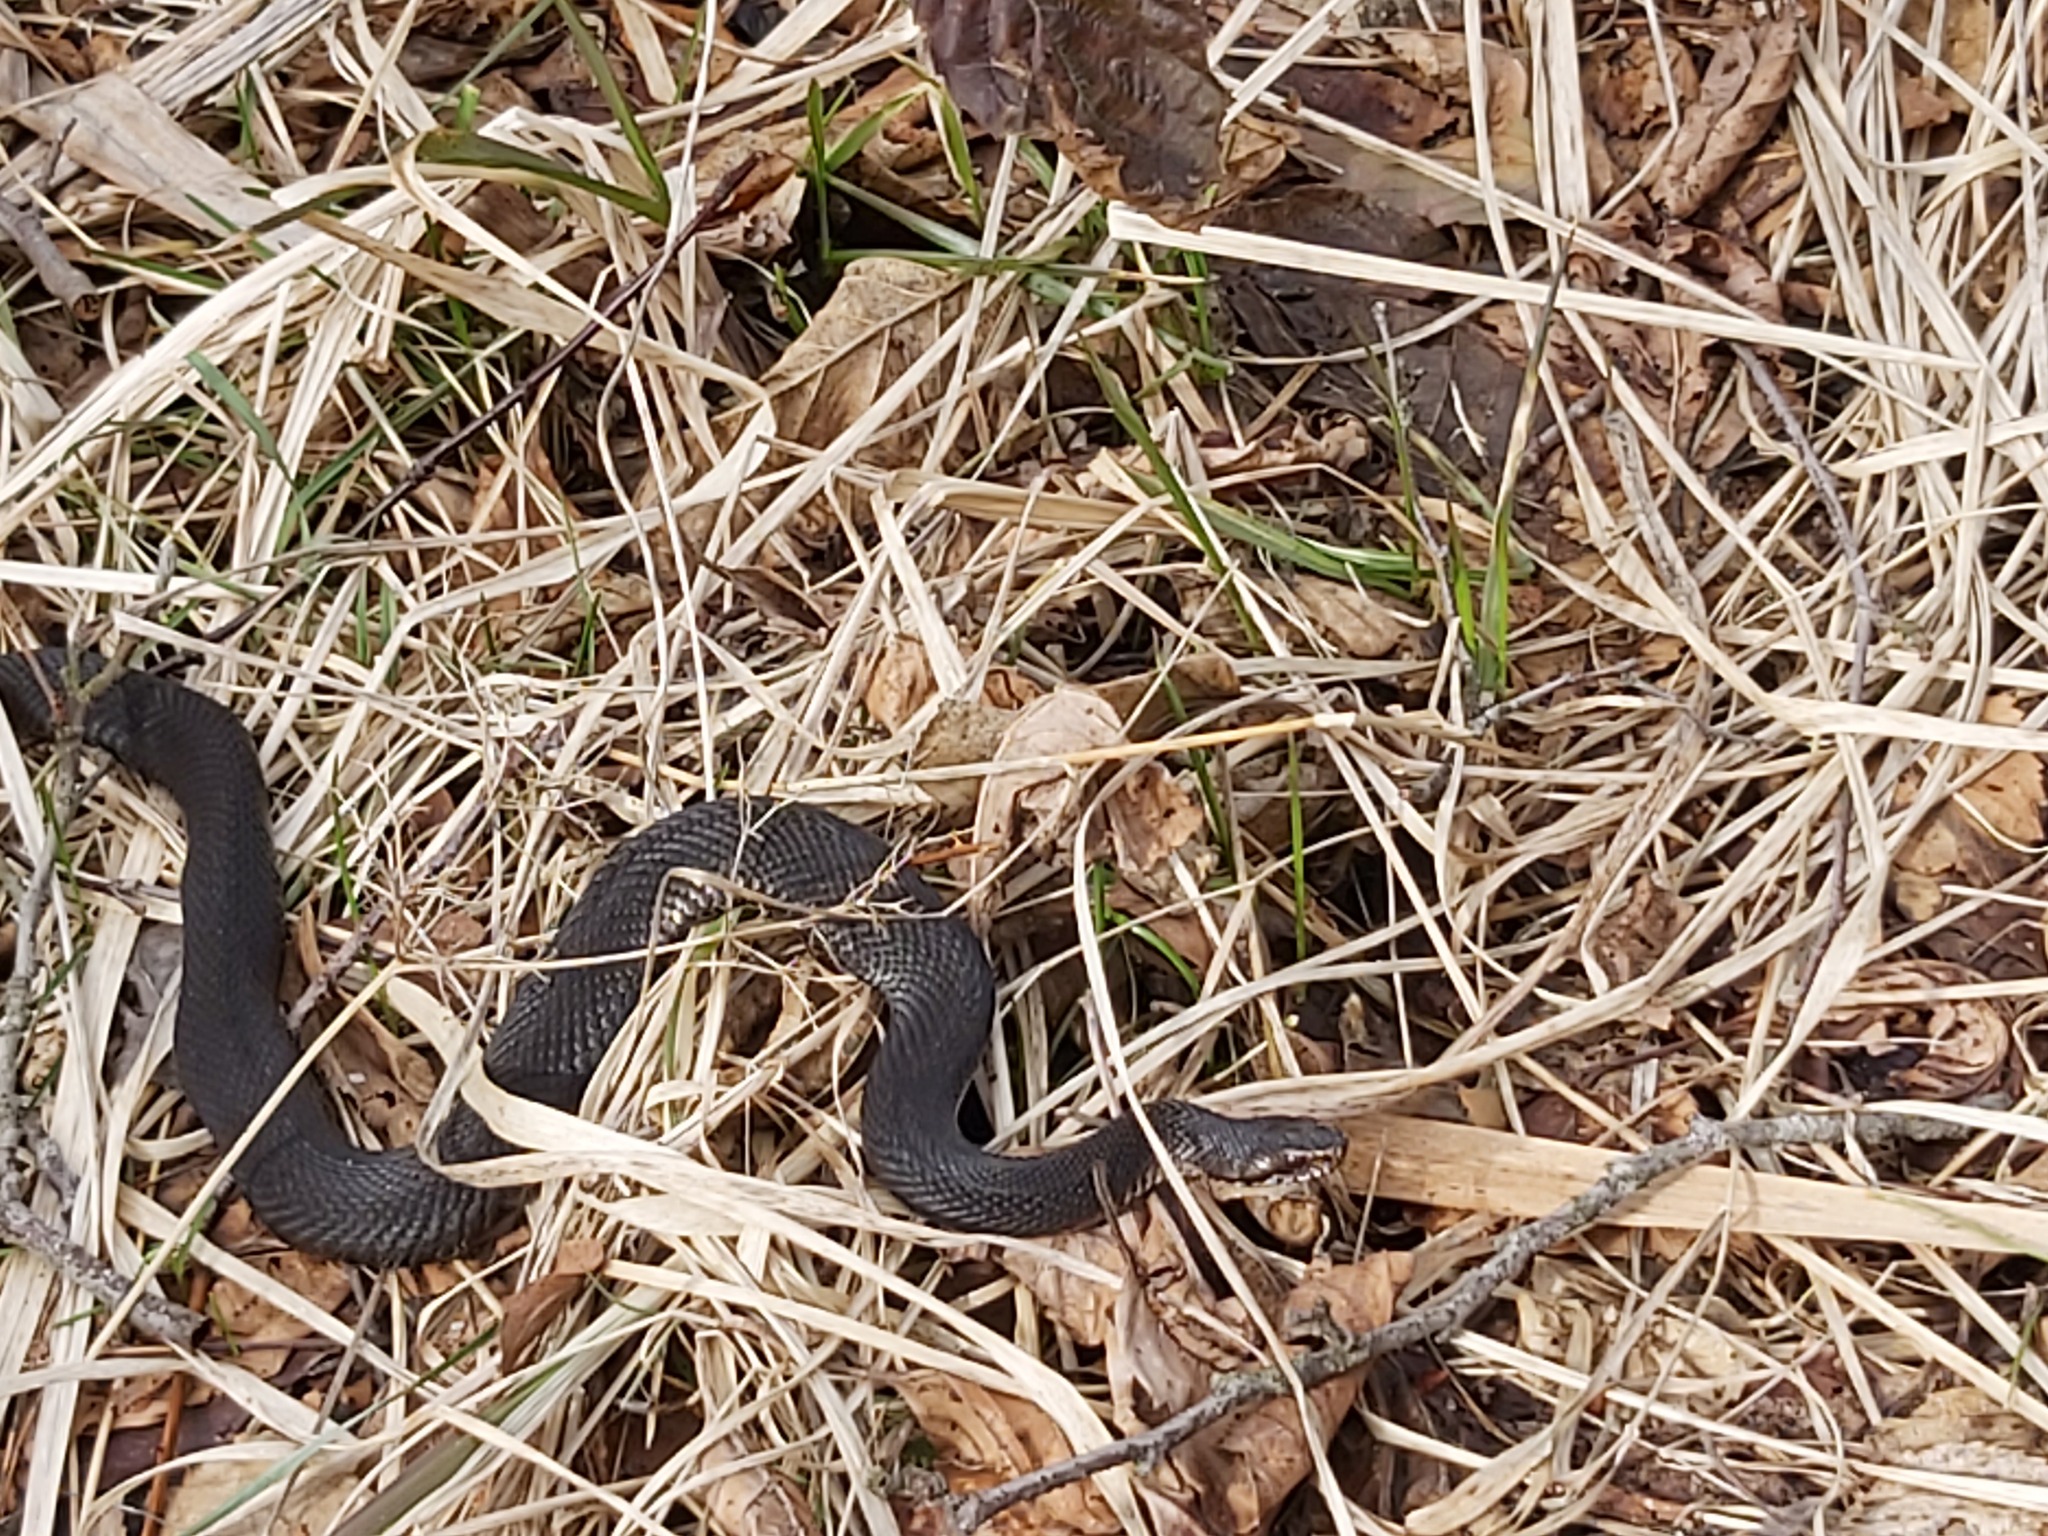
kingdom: Animalia
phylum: Chordata
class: Squamata
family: Viperidae
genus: Vipera
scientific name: Vipera berus
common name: Adder
